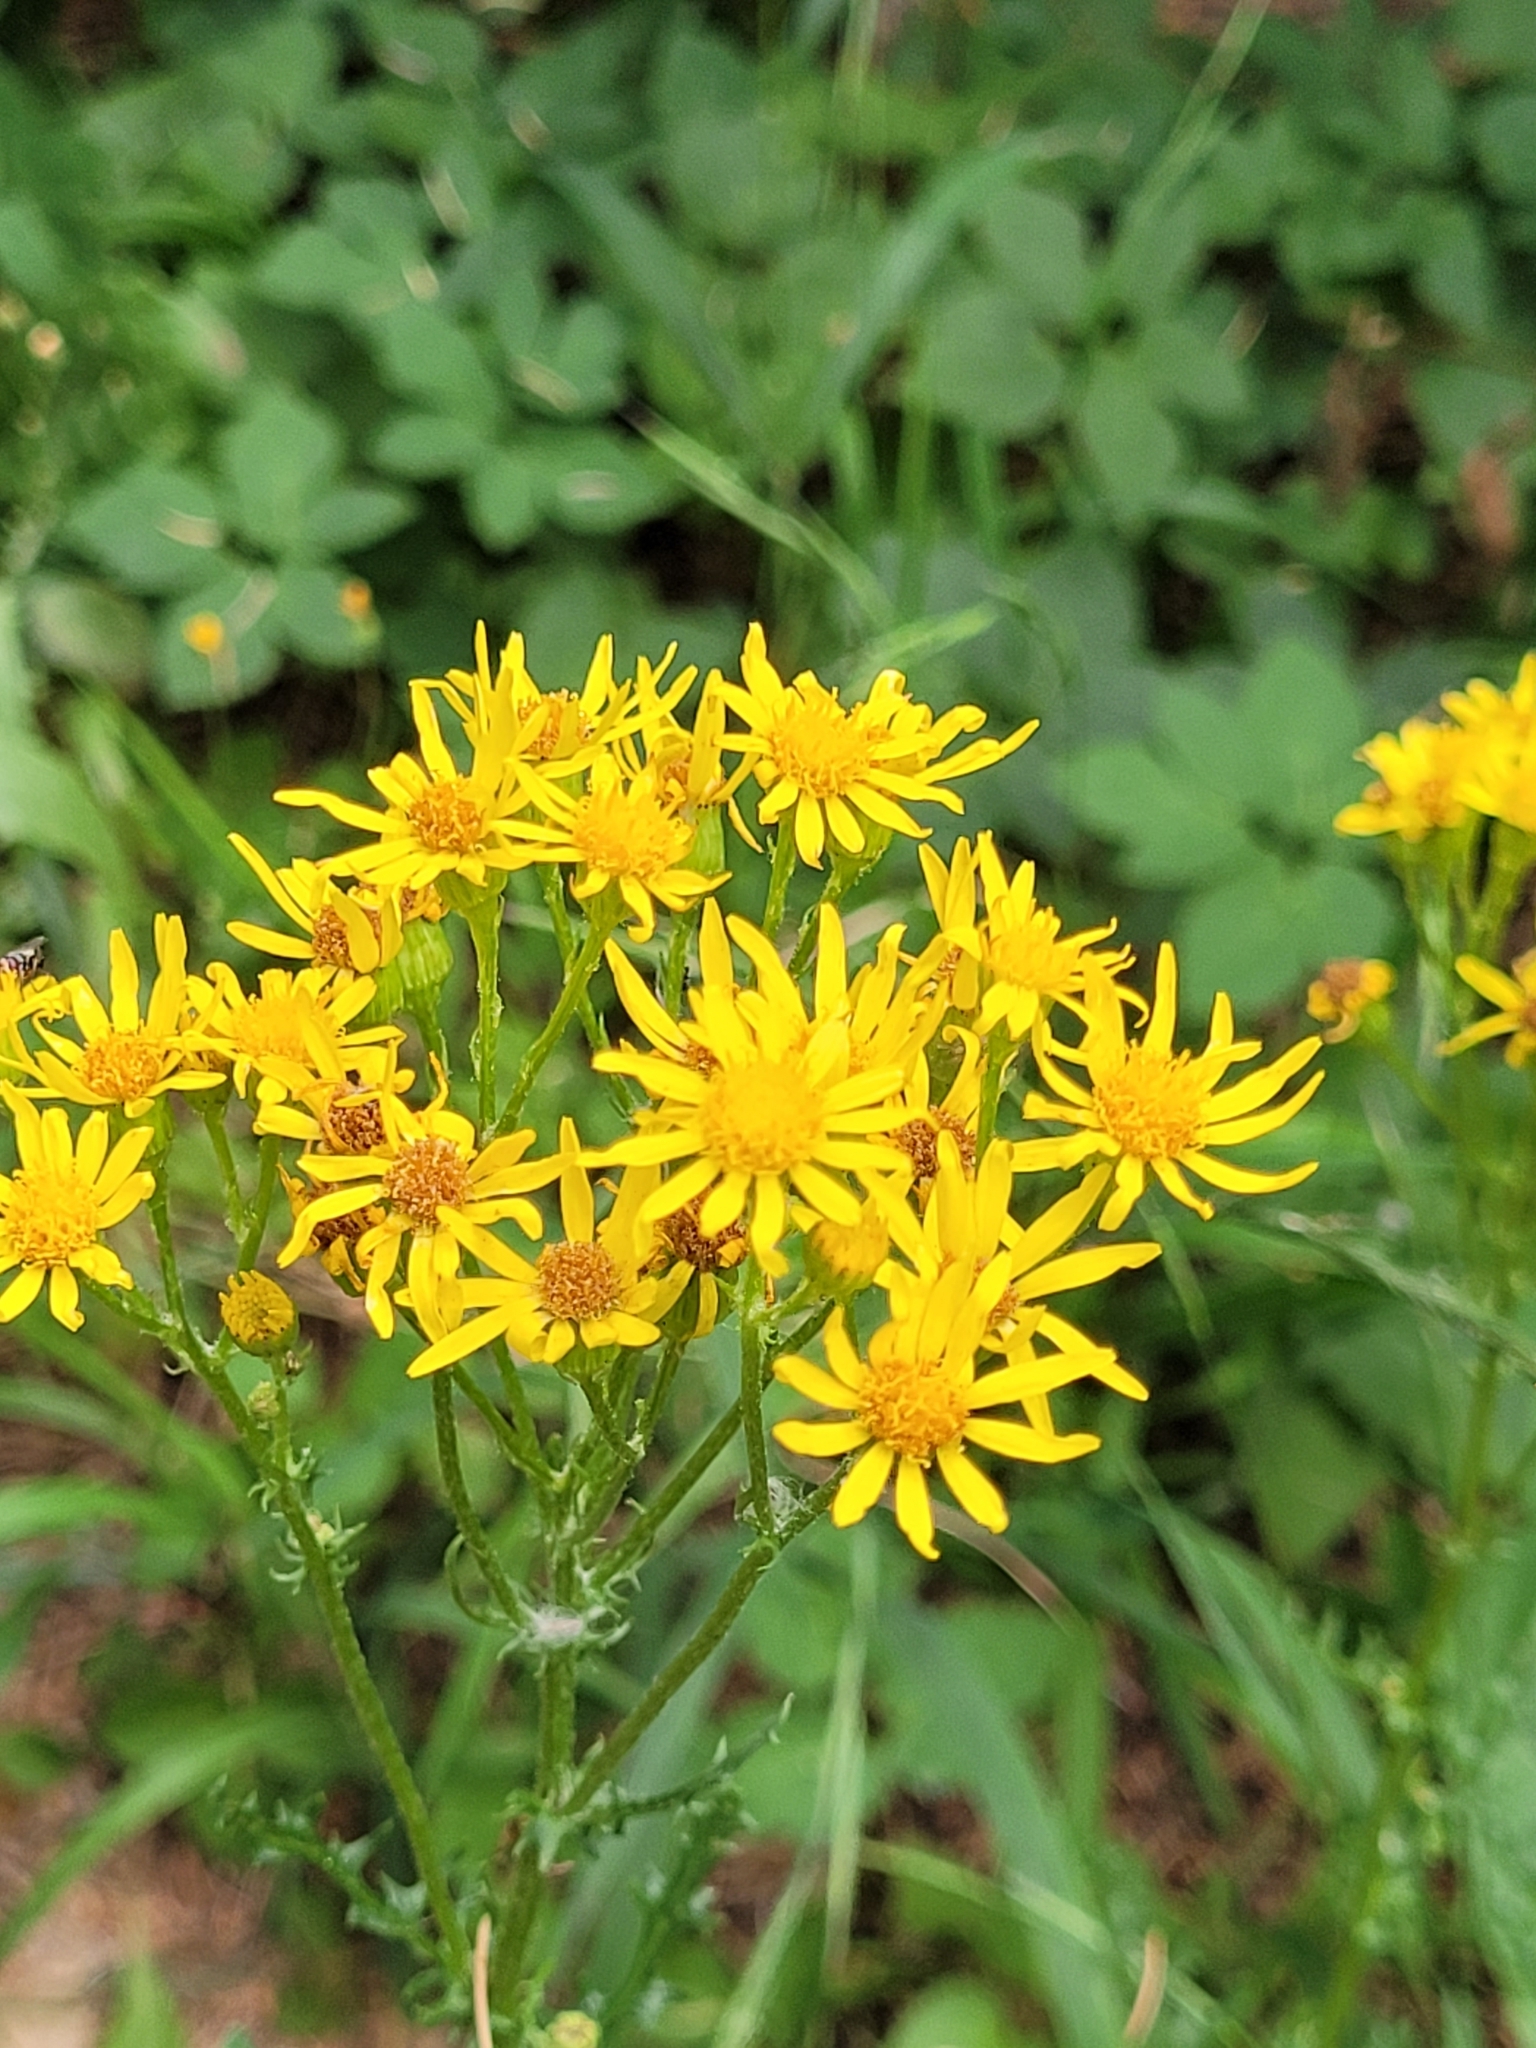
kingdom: Plantae
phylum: Tracheophyta
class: Magnoliopsida
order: Asterales
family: Asteraceae
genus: Jacobaea
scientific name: Jacobaea vulgaris
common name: Stinking willie
